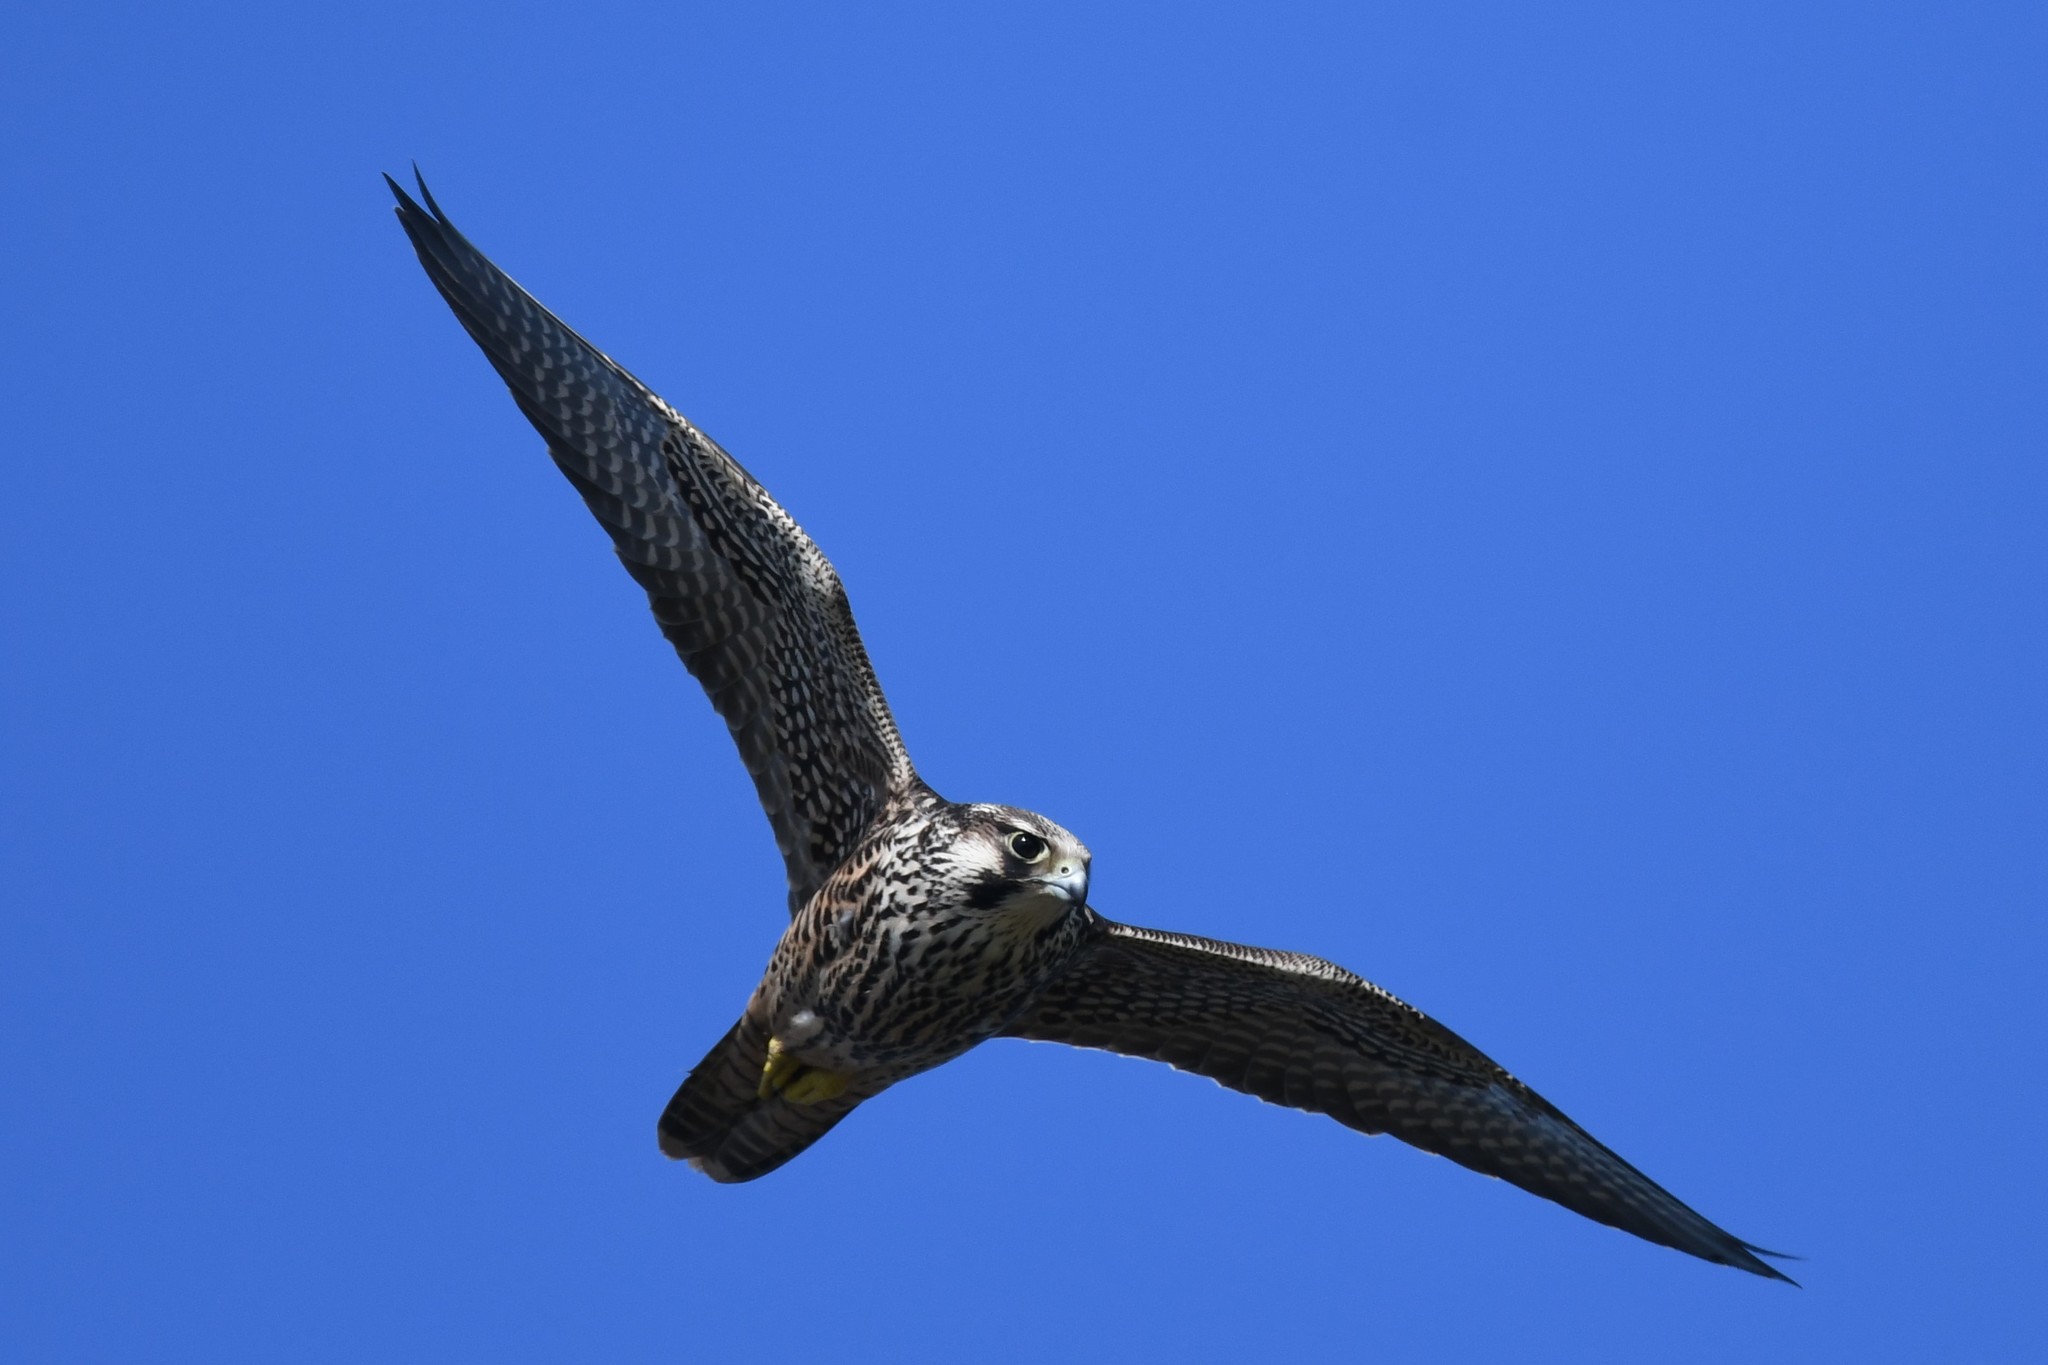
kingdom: Animalia
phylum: Chordata
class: Aves
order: Falconiformes
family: Falconidae
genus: Falco
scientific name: Falco peregrinus
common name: Peregrine falcon
